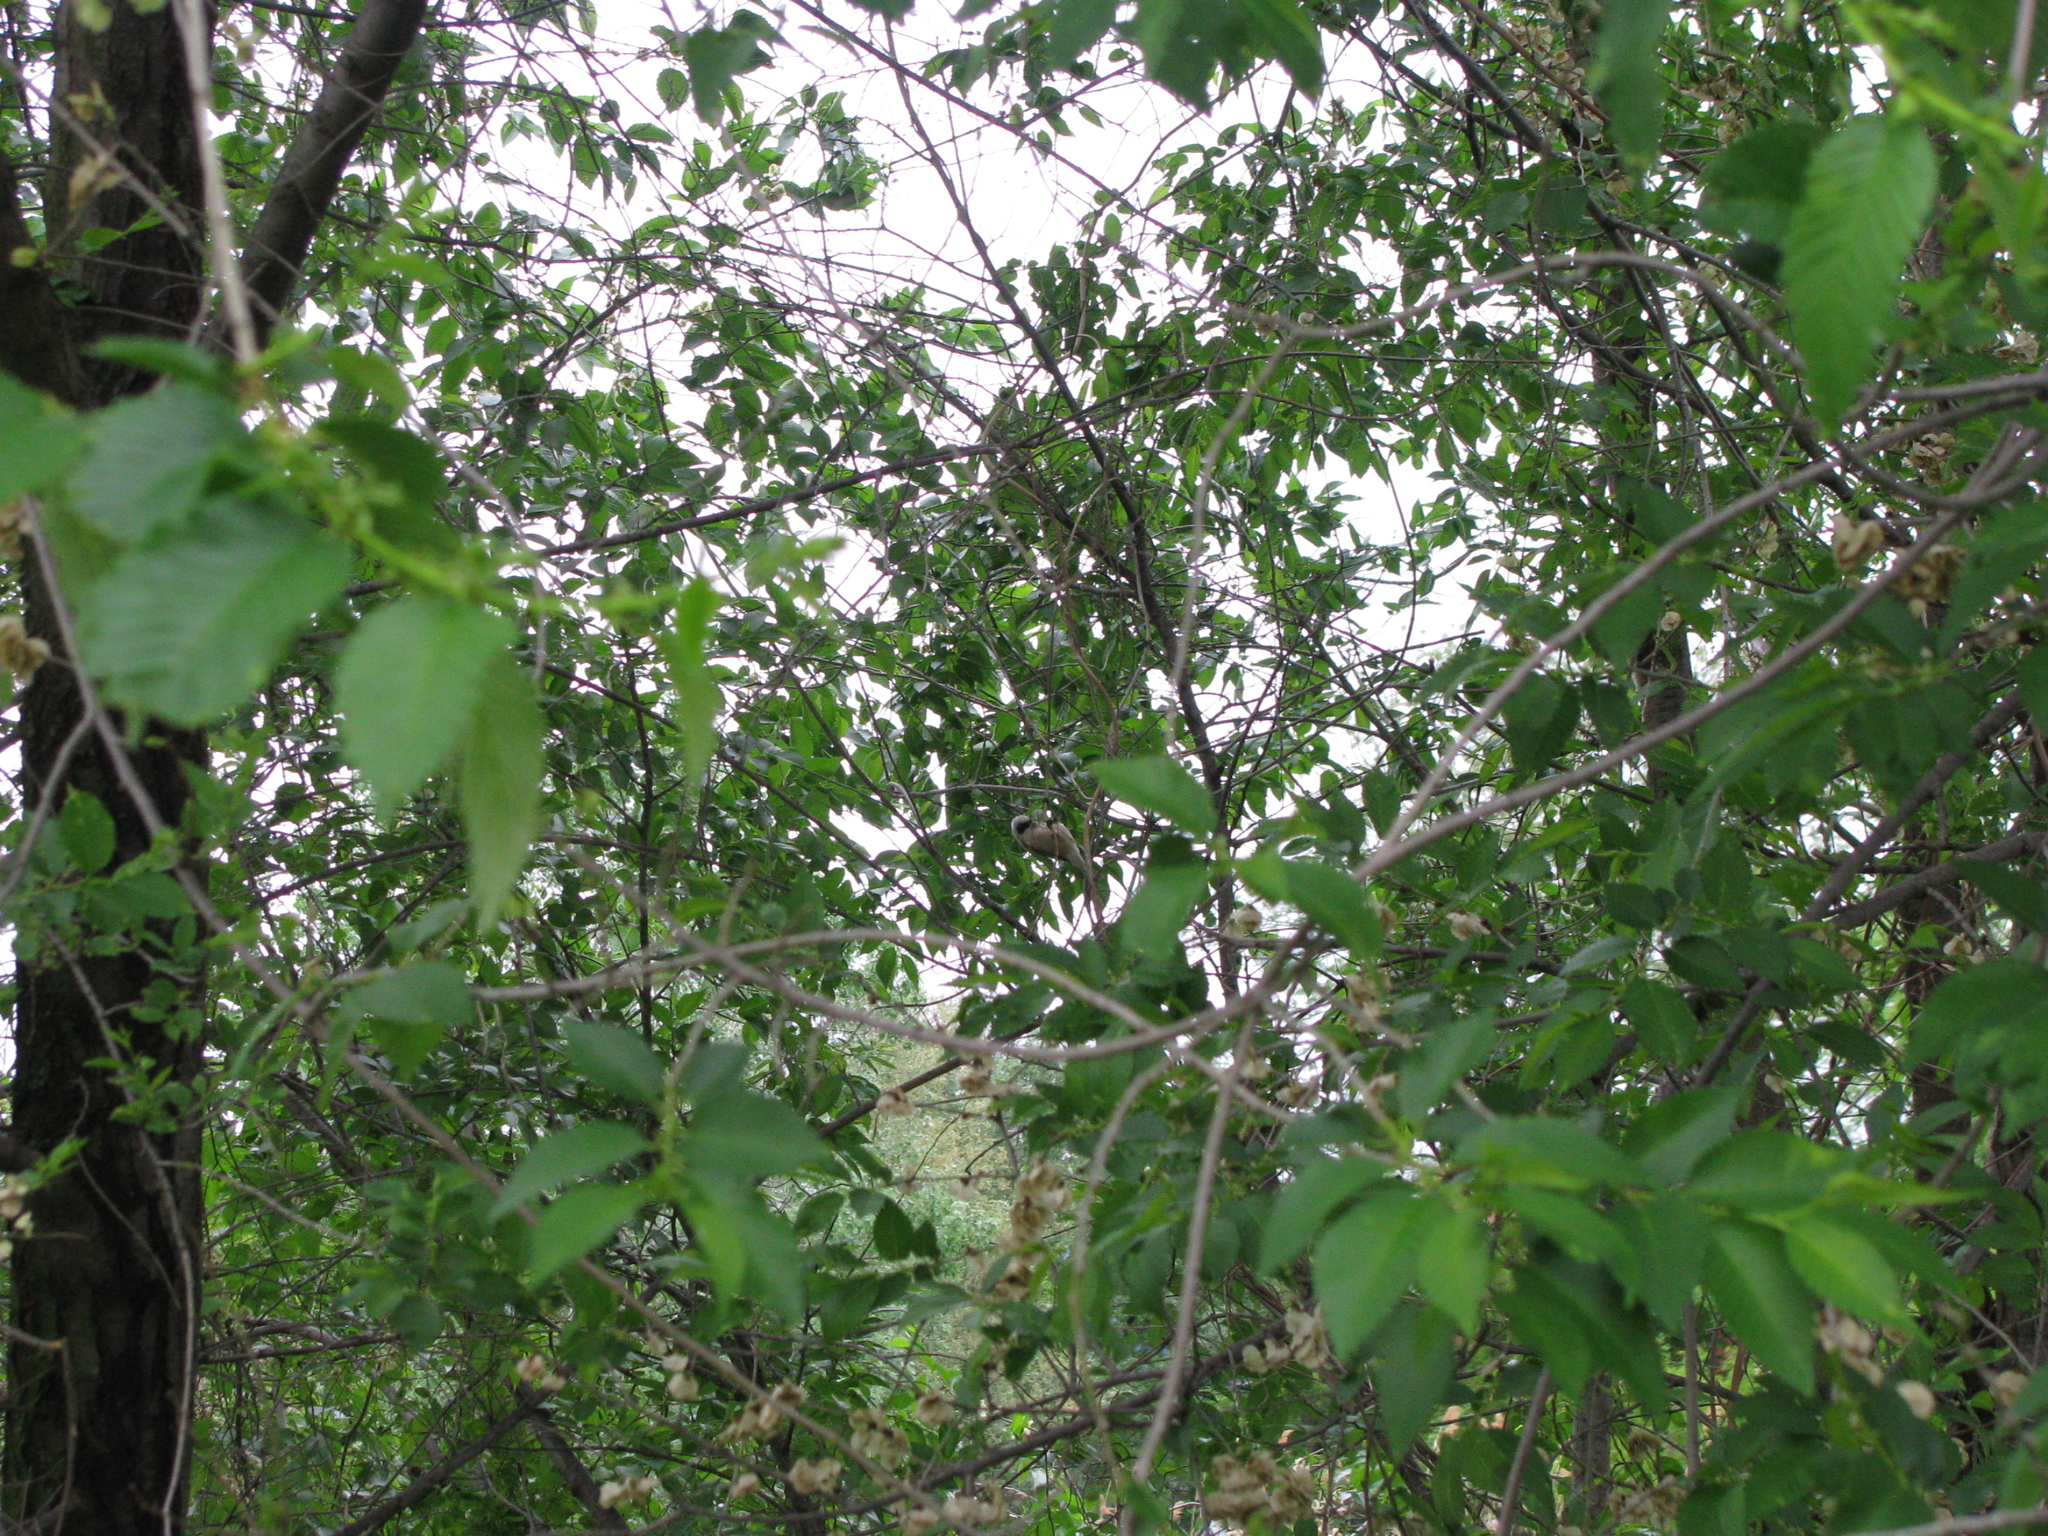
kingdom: Animalia
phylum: Chordata
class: Aves
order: Passeriformes
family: Remizidae
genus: Remiz
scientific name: Remiz pendulinus
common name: Eurasian penduline tit
